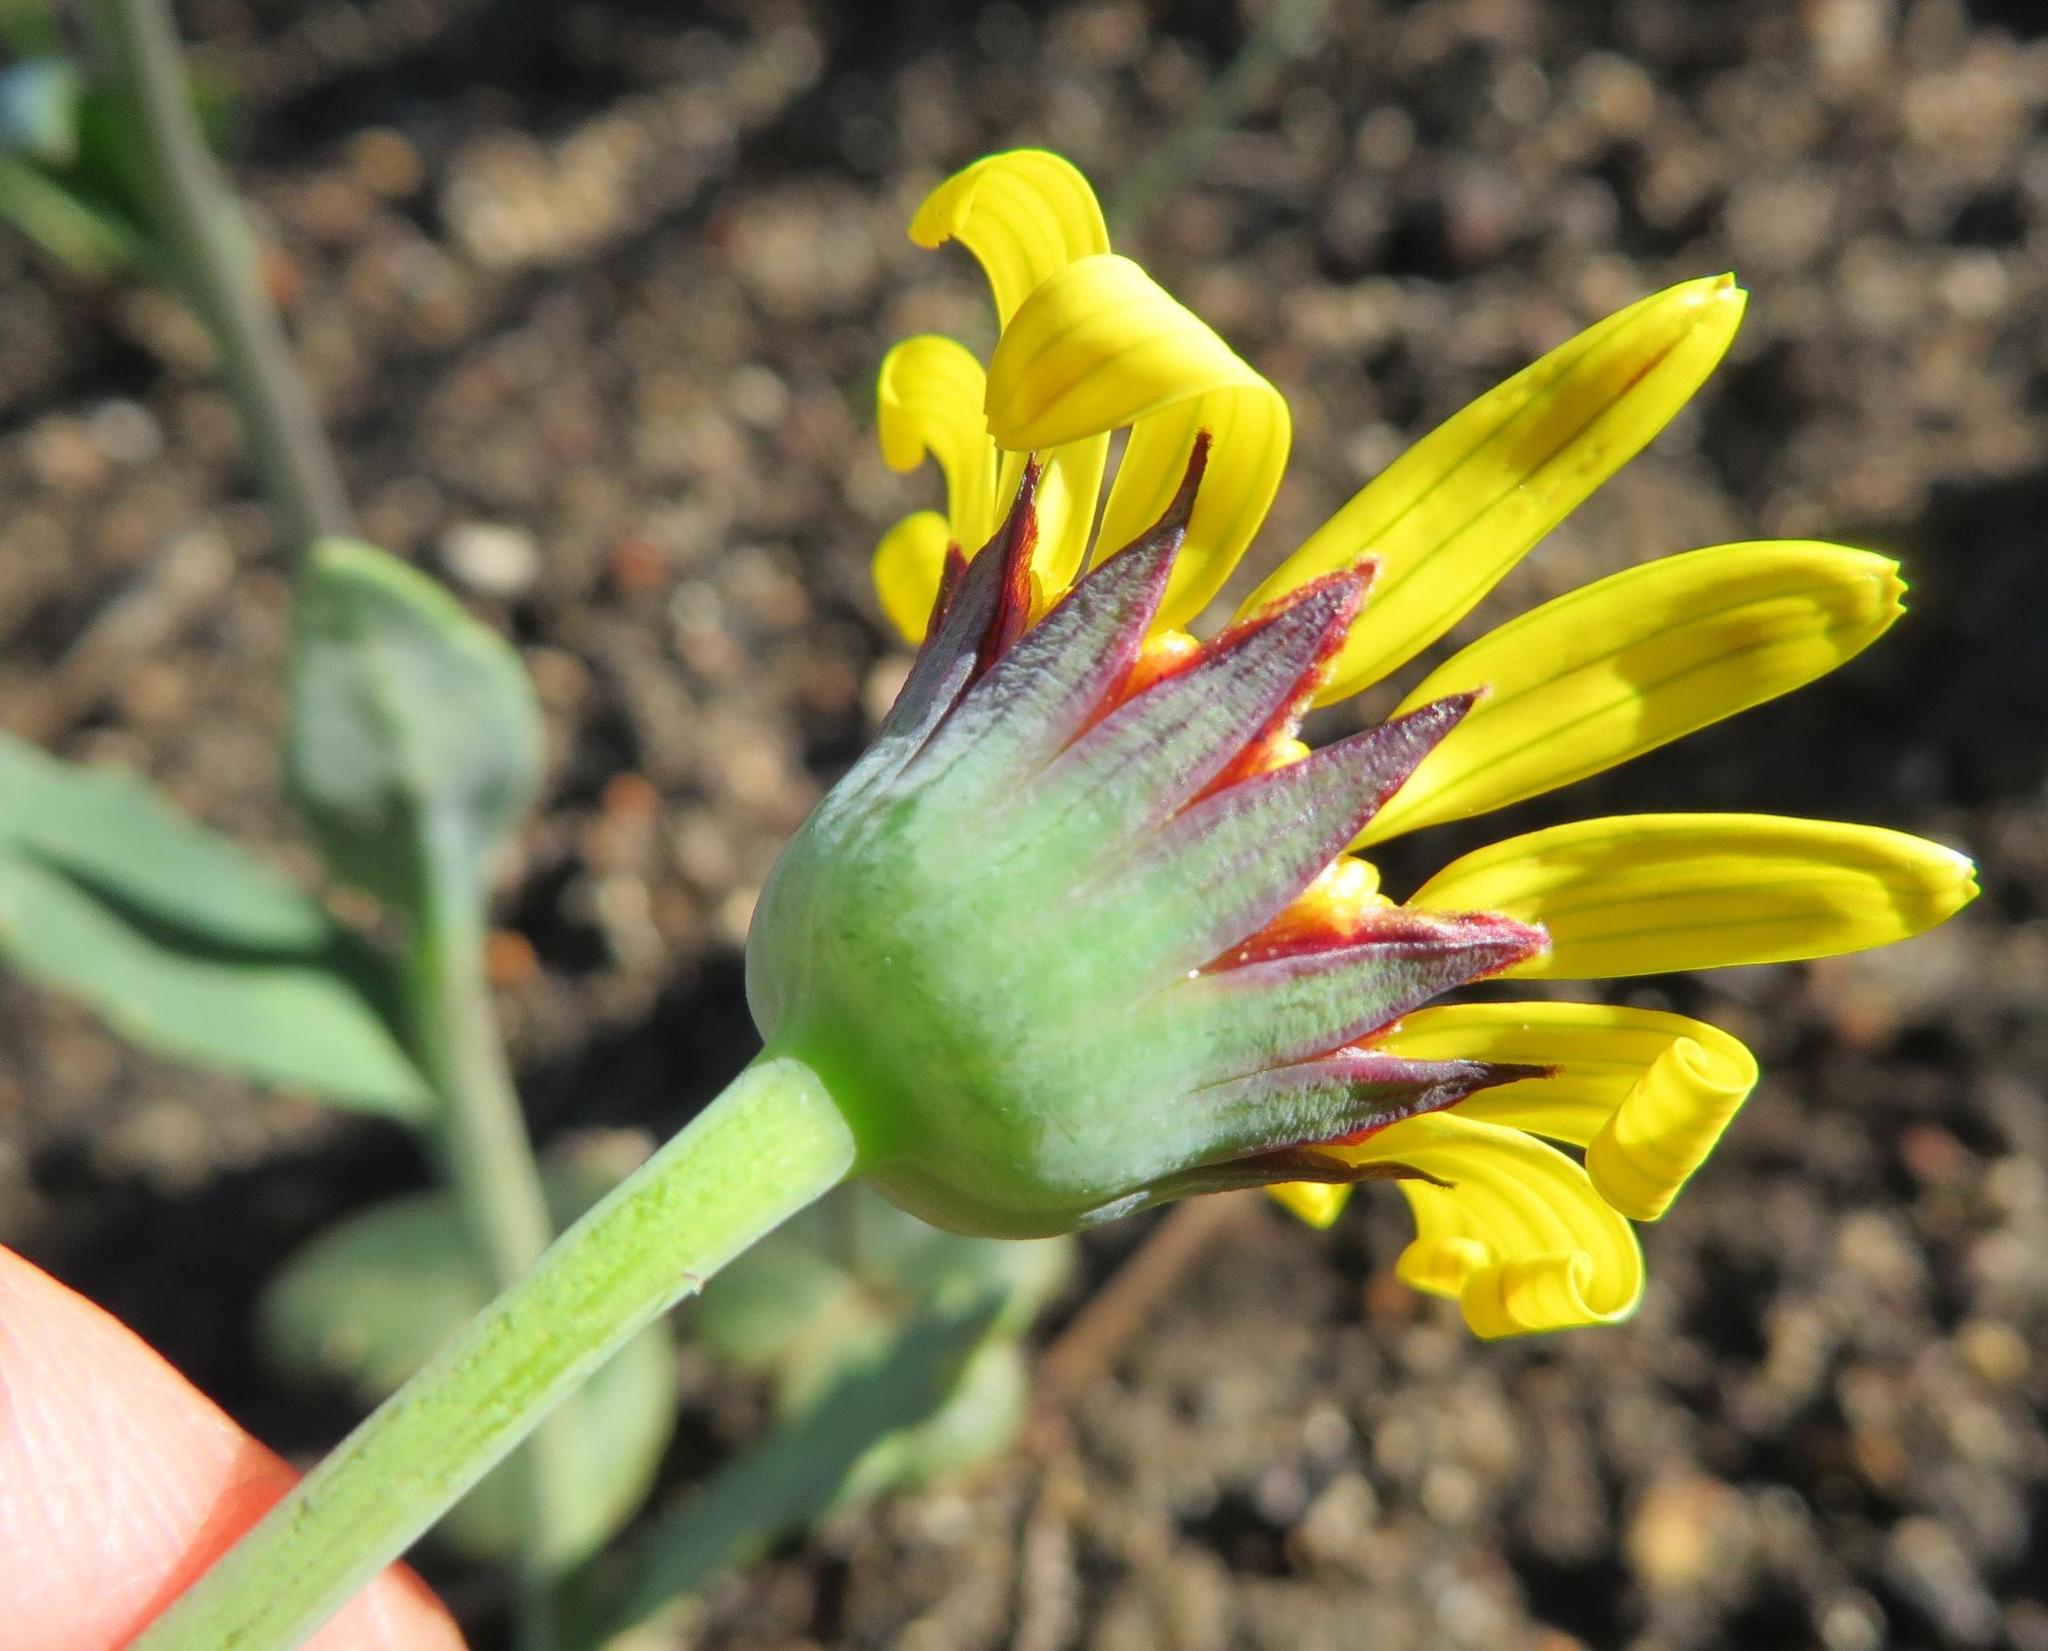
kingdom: Plantae
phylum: Tracheophyta
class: Magnoliopsida
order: Asterales
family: Asteraceae
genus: Othonna
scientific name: Othonna heterophylla
